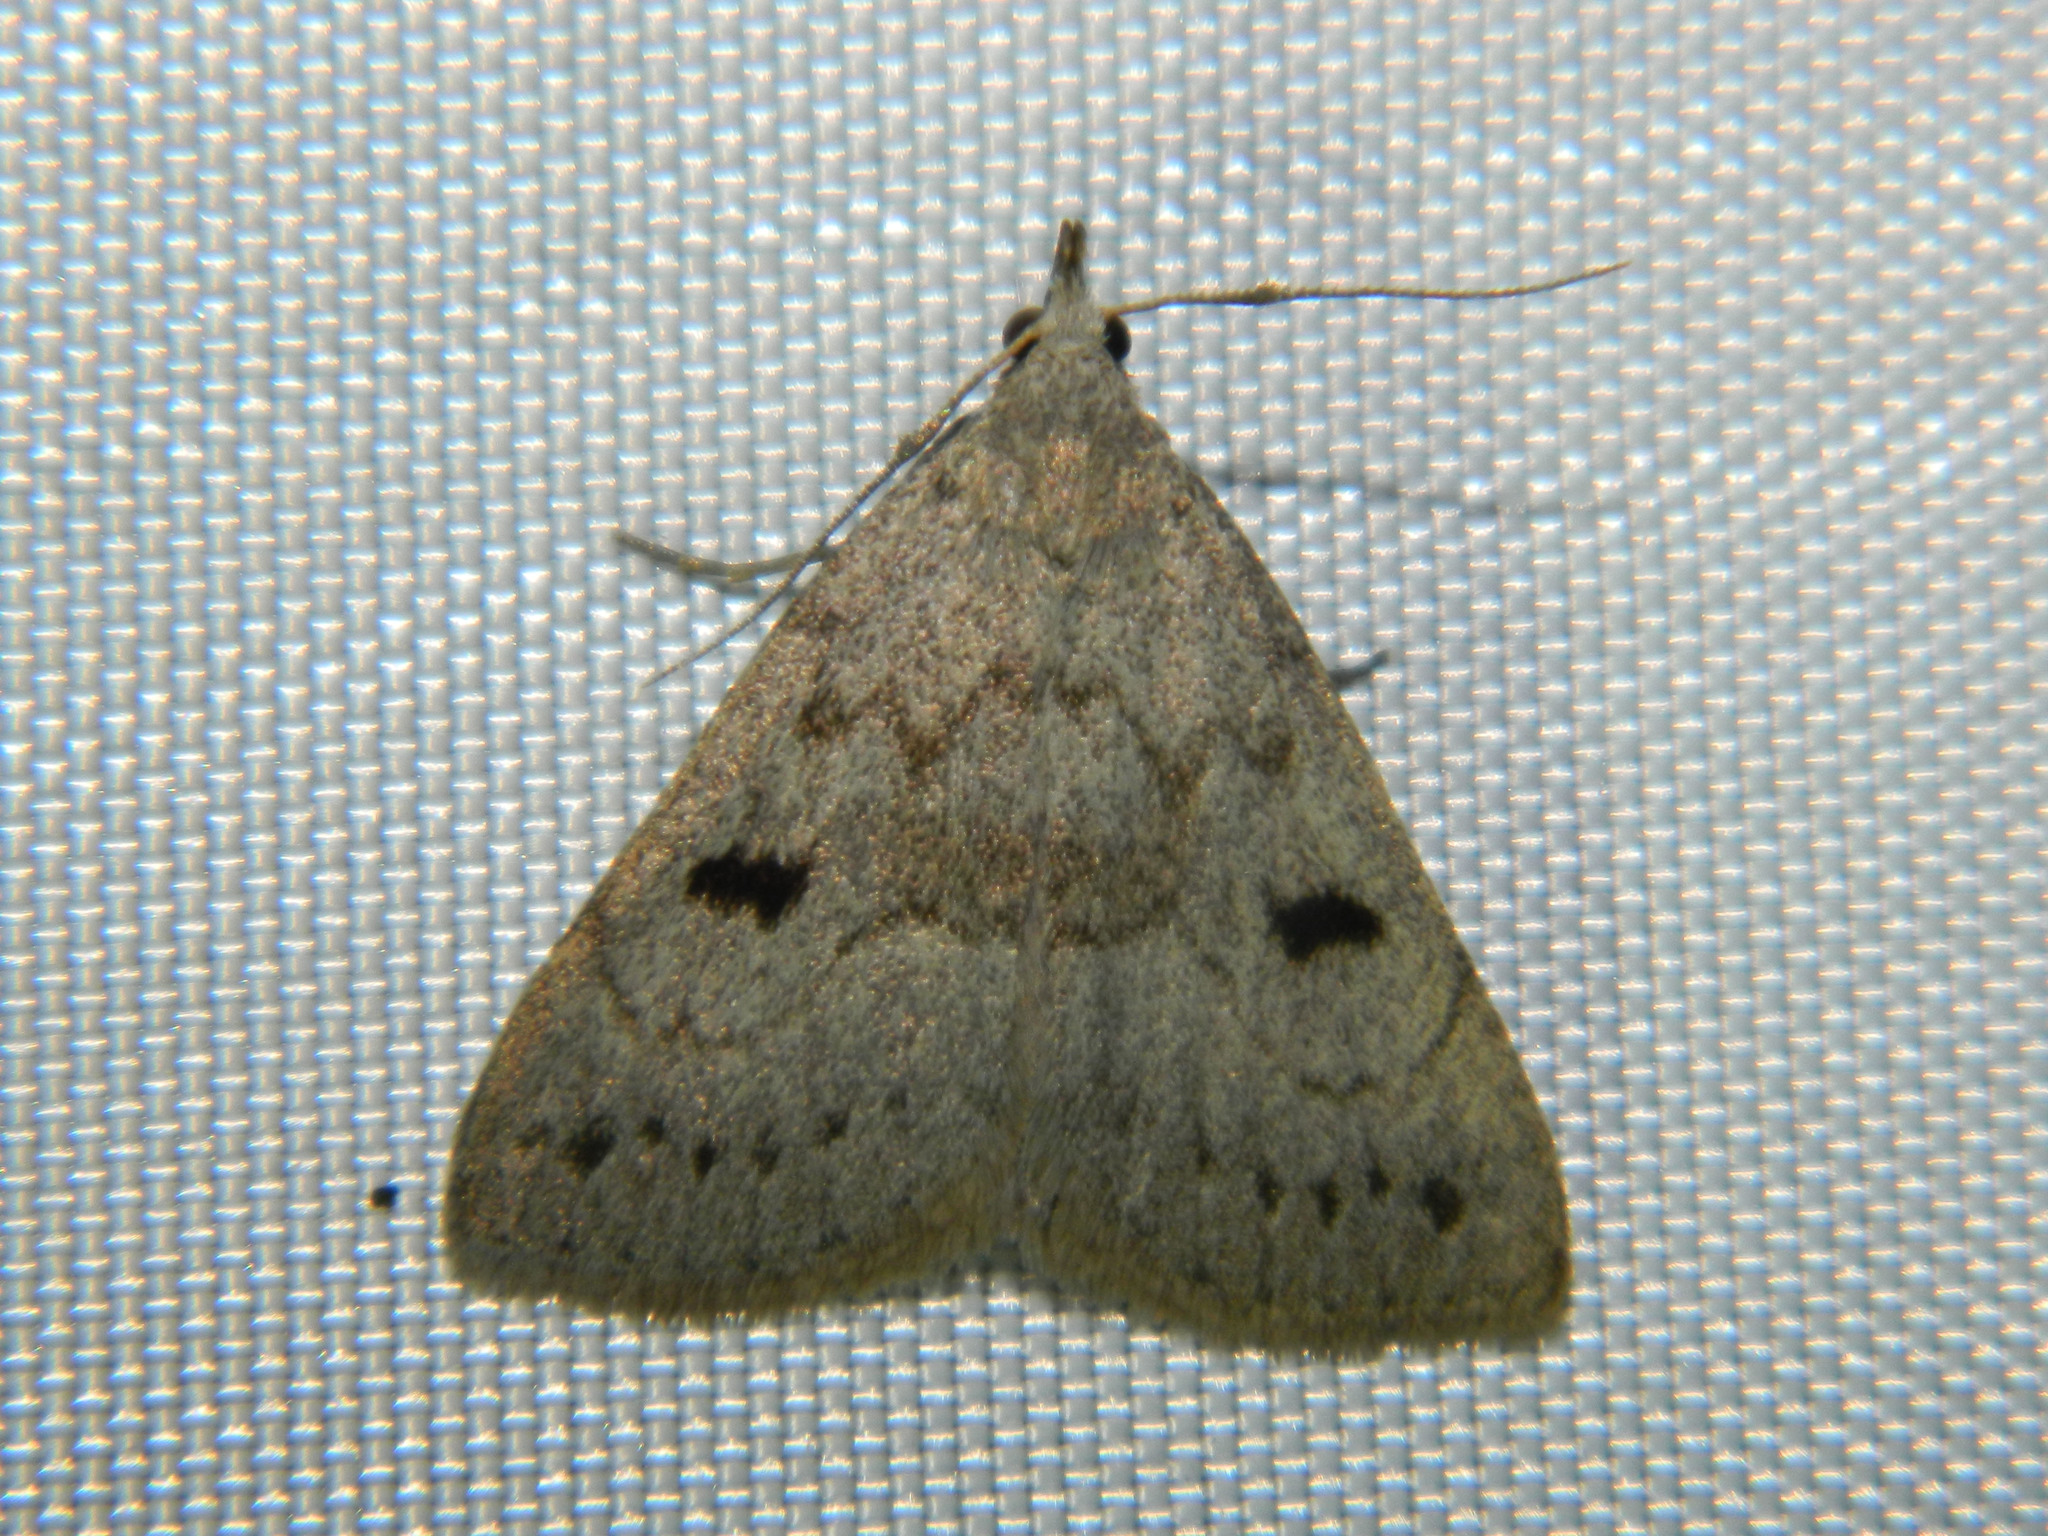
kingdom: Animalia
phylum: Arthropoda
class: Insecta
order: Lepidoptera
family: Erebidae
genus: Macrochilo
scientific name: Macrochilo morbidalis
